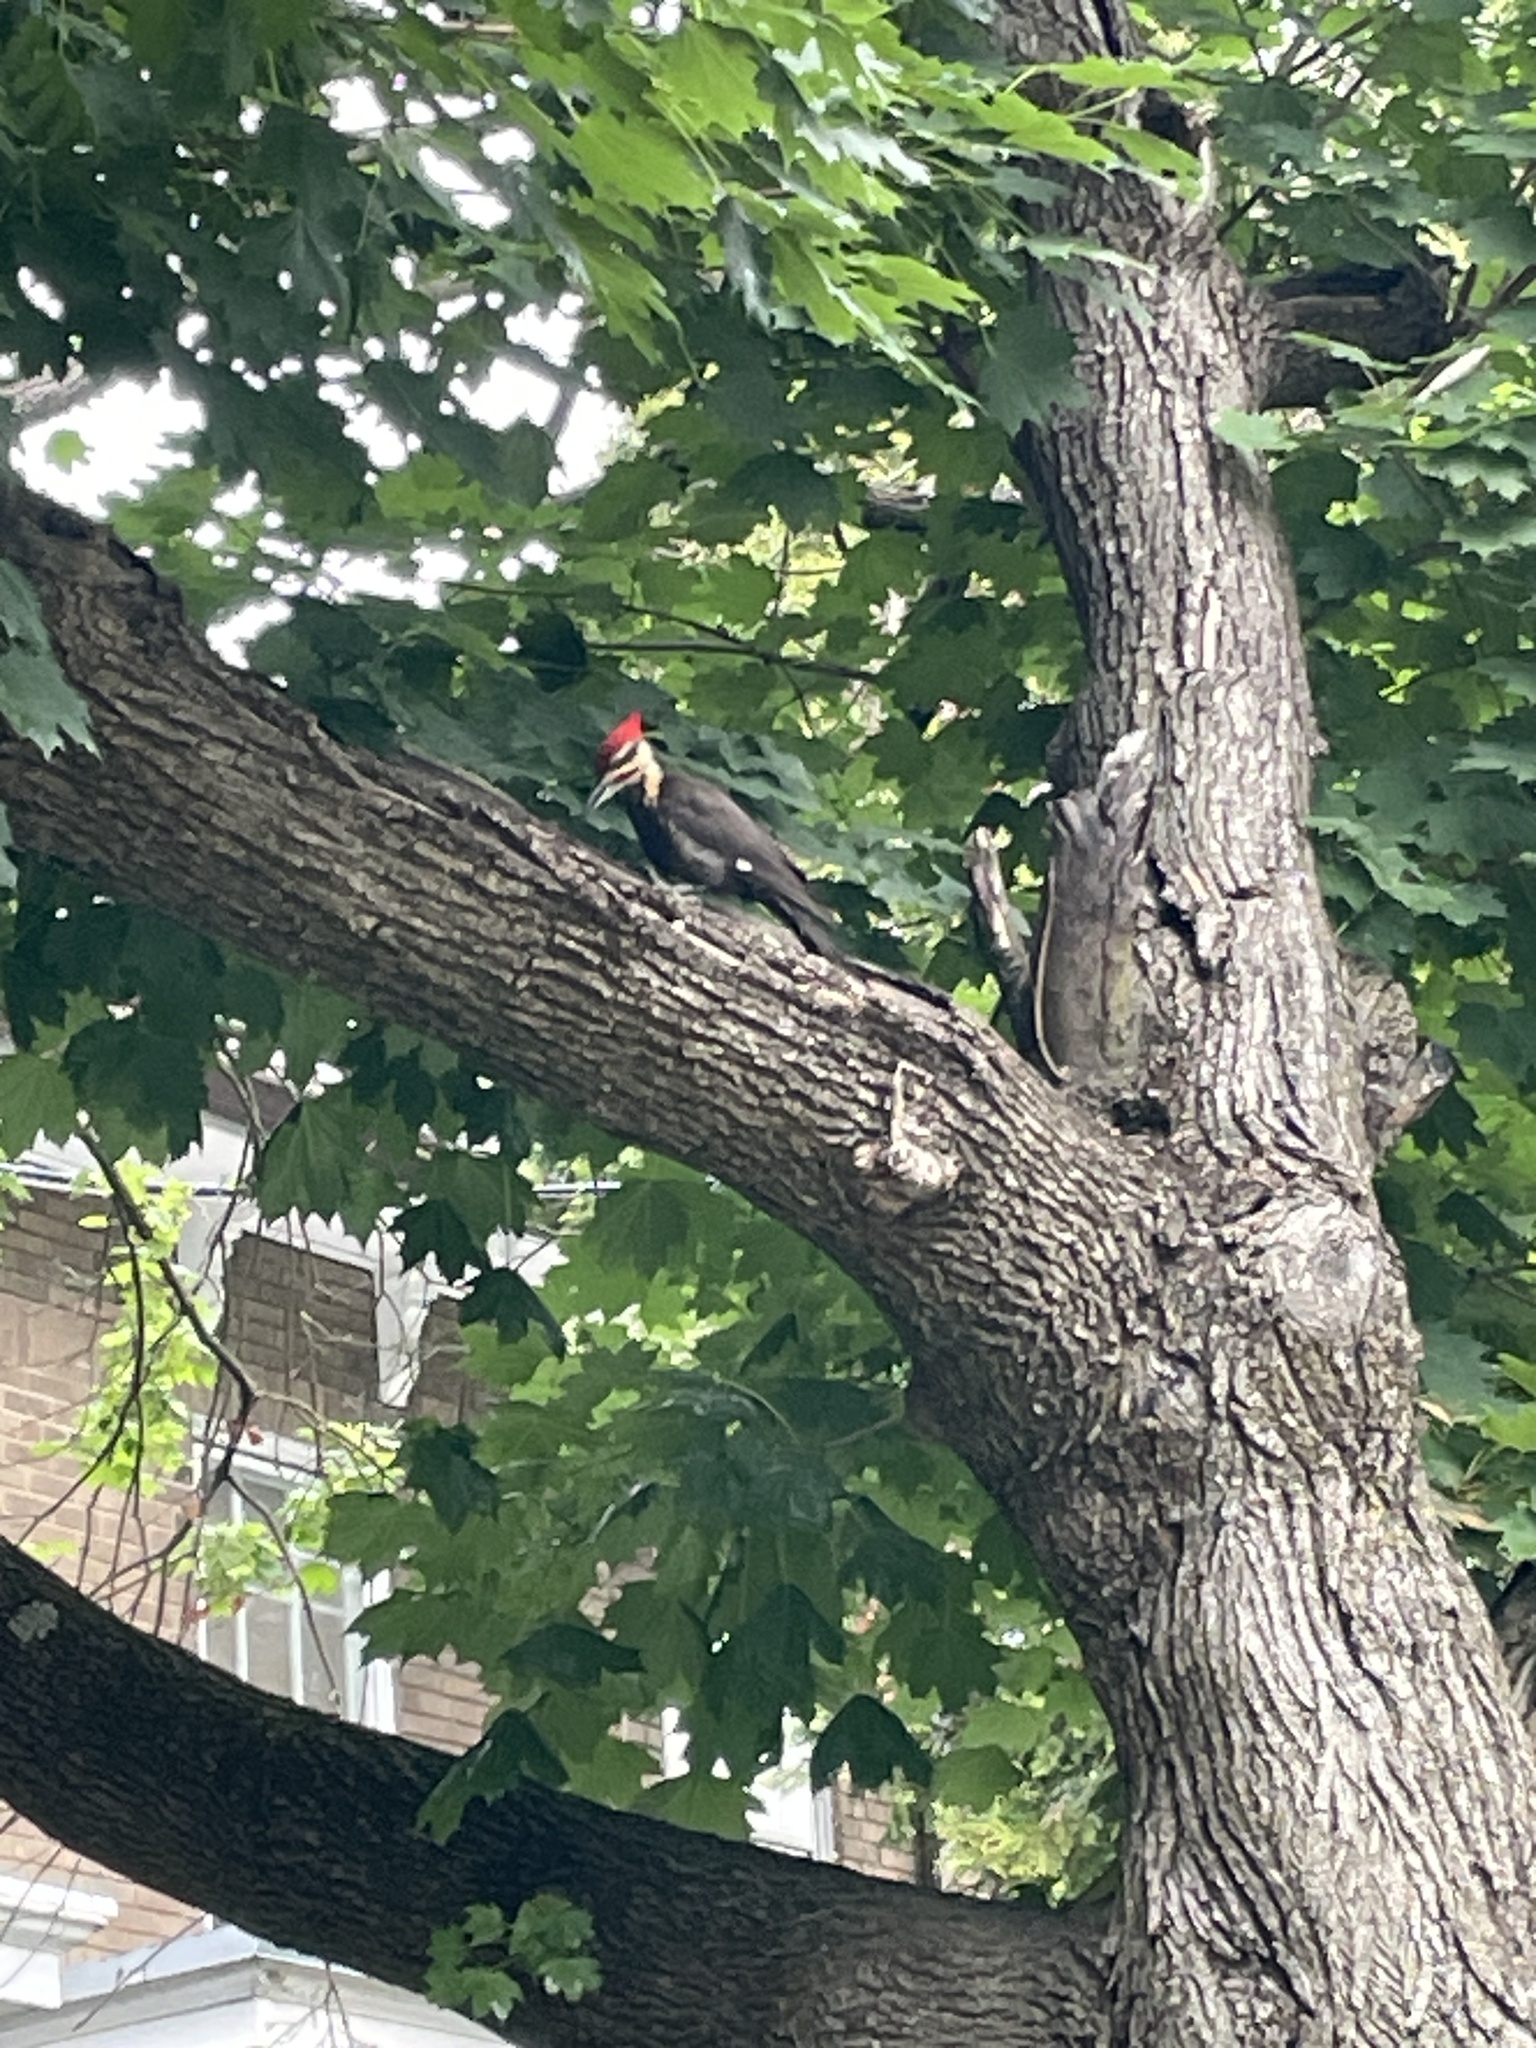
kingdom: Animalia
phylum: Chordata
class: Aves
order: Piciformes
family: Picidae
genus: Dryocopus
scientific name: Dryocopus pileatus
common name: Pileated woodpecker
